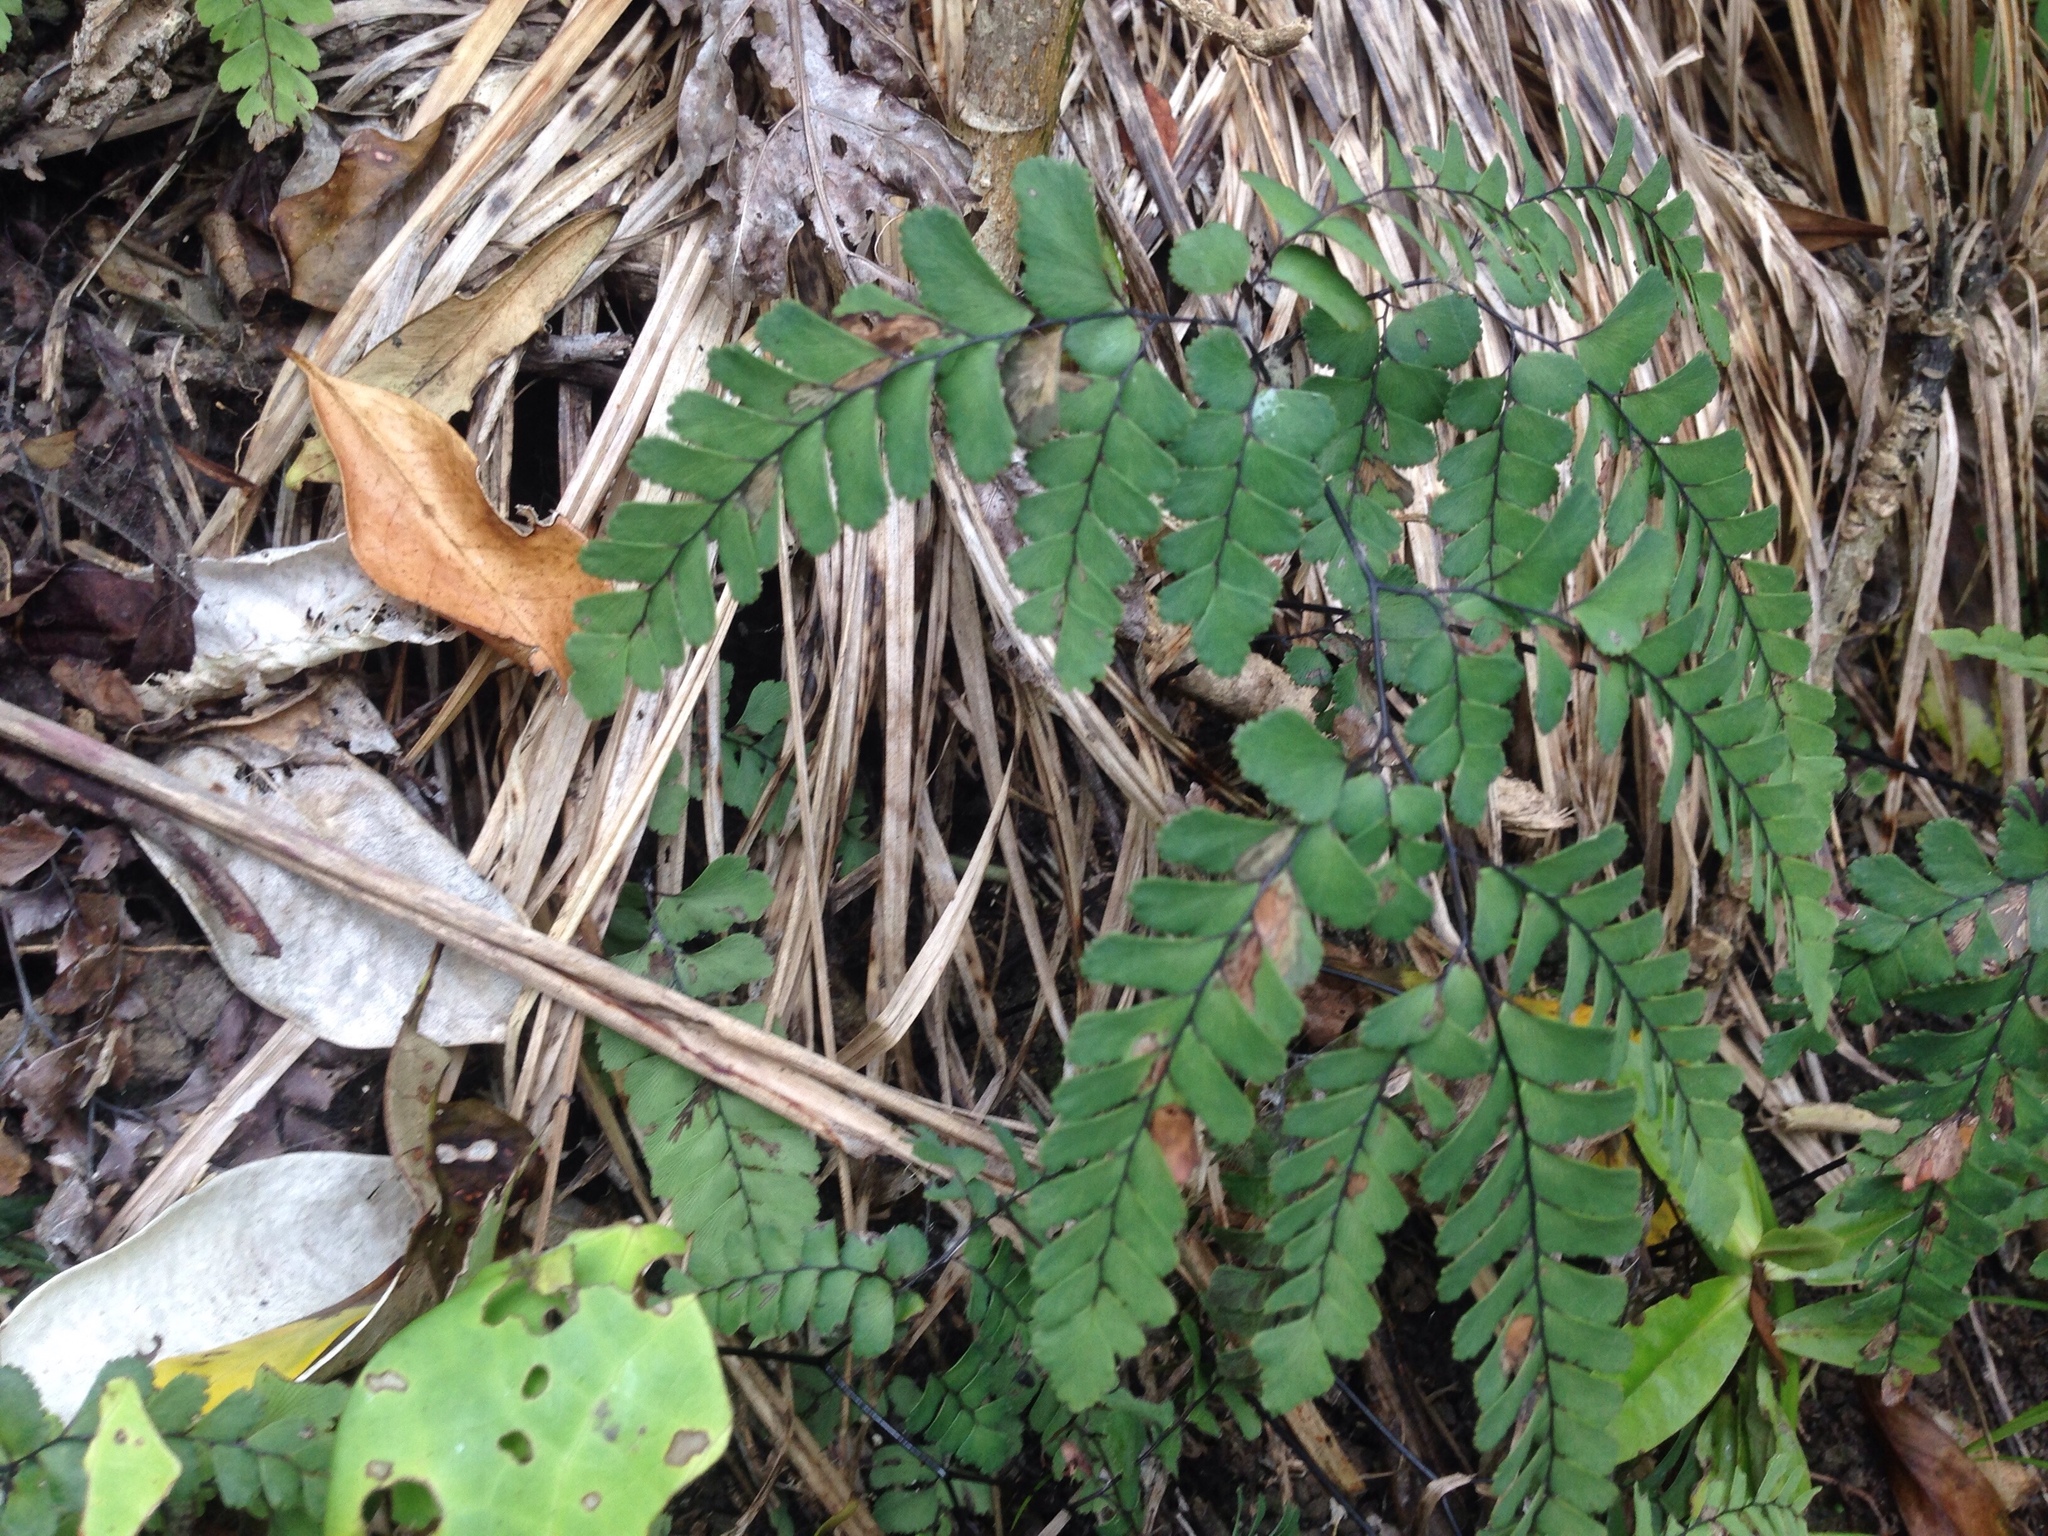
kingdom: Plantae
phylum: Tracheophyta
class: Polypodiopsida
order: Polypodiales
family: Pteridaceae
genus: Adiantum
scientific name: Adiantum cunninghamii
